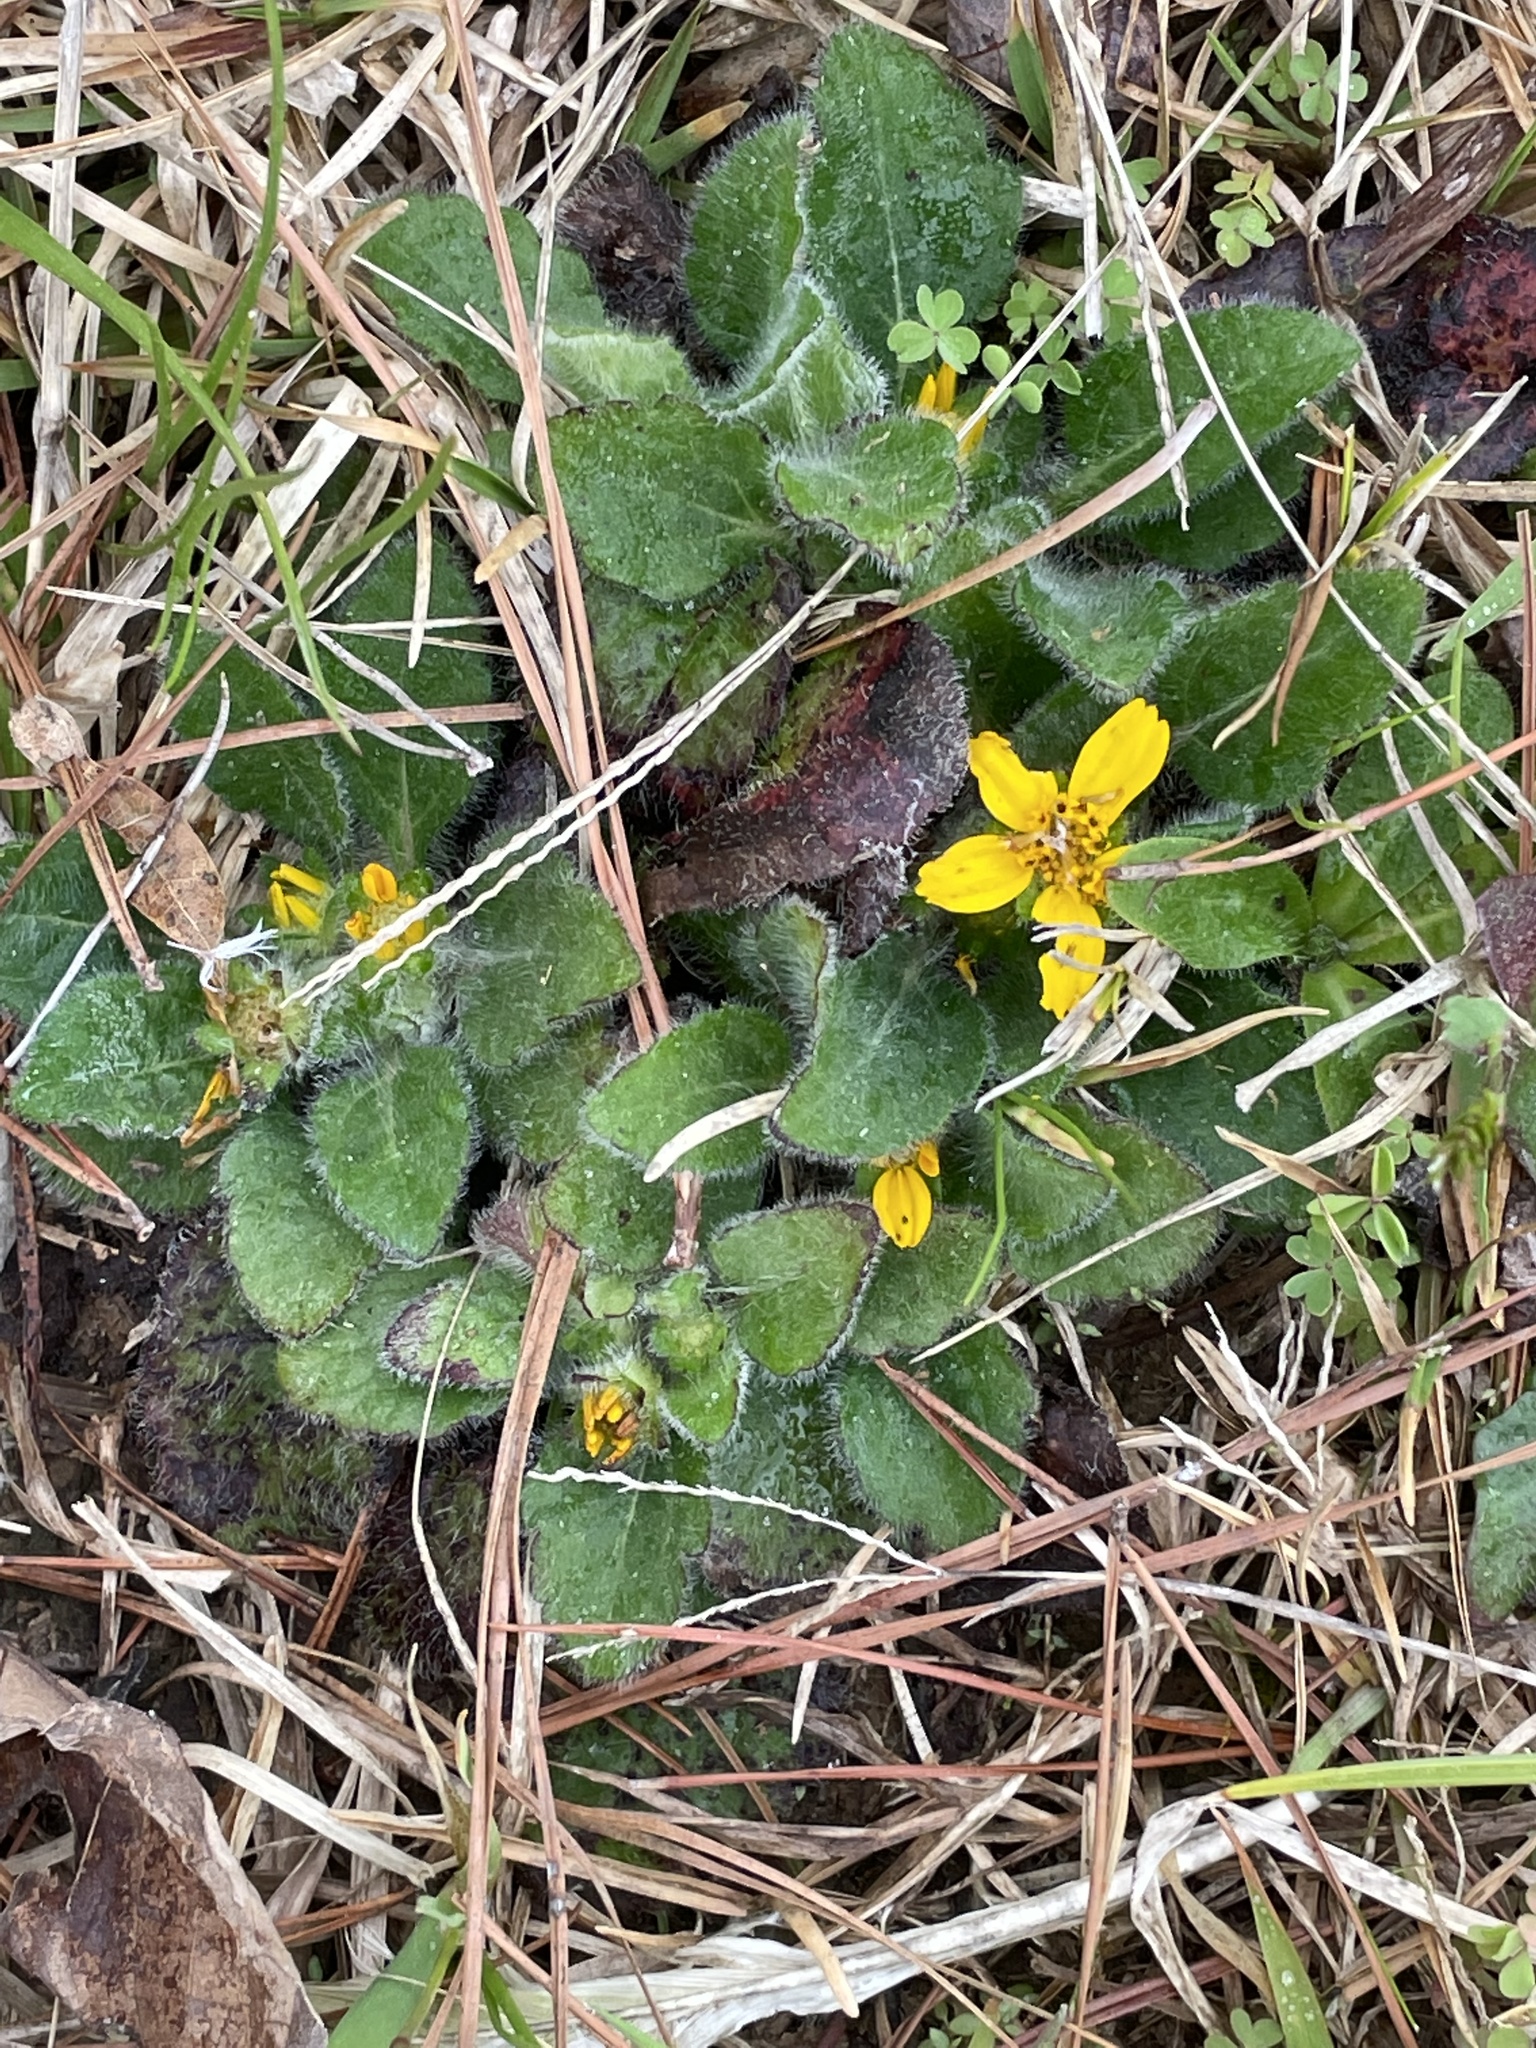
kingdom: Plantae
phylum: Tracheophyta
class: Magnoliopsida
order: Asterales
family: Asteraceae
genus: Chrysogonum
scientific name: Chrysogonum virginianum
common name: Golden-knee
